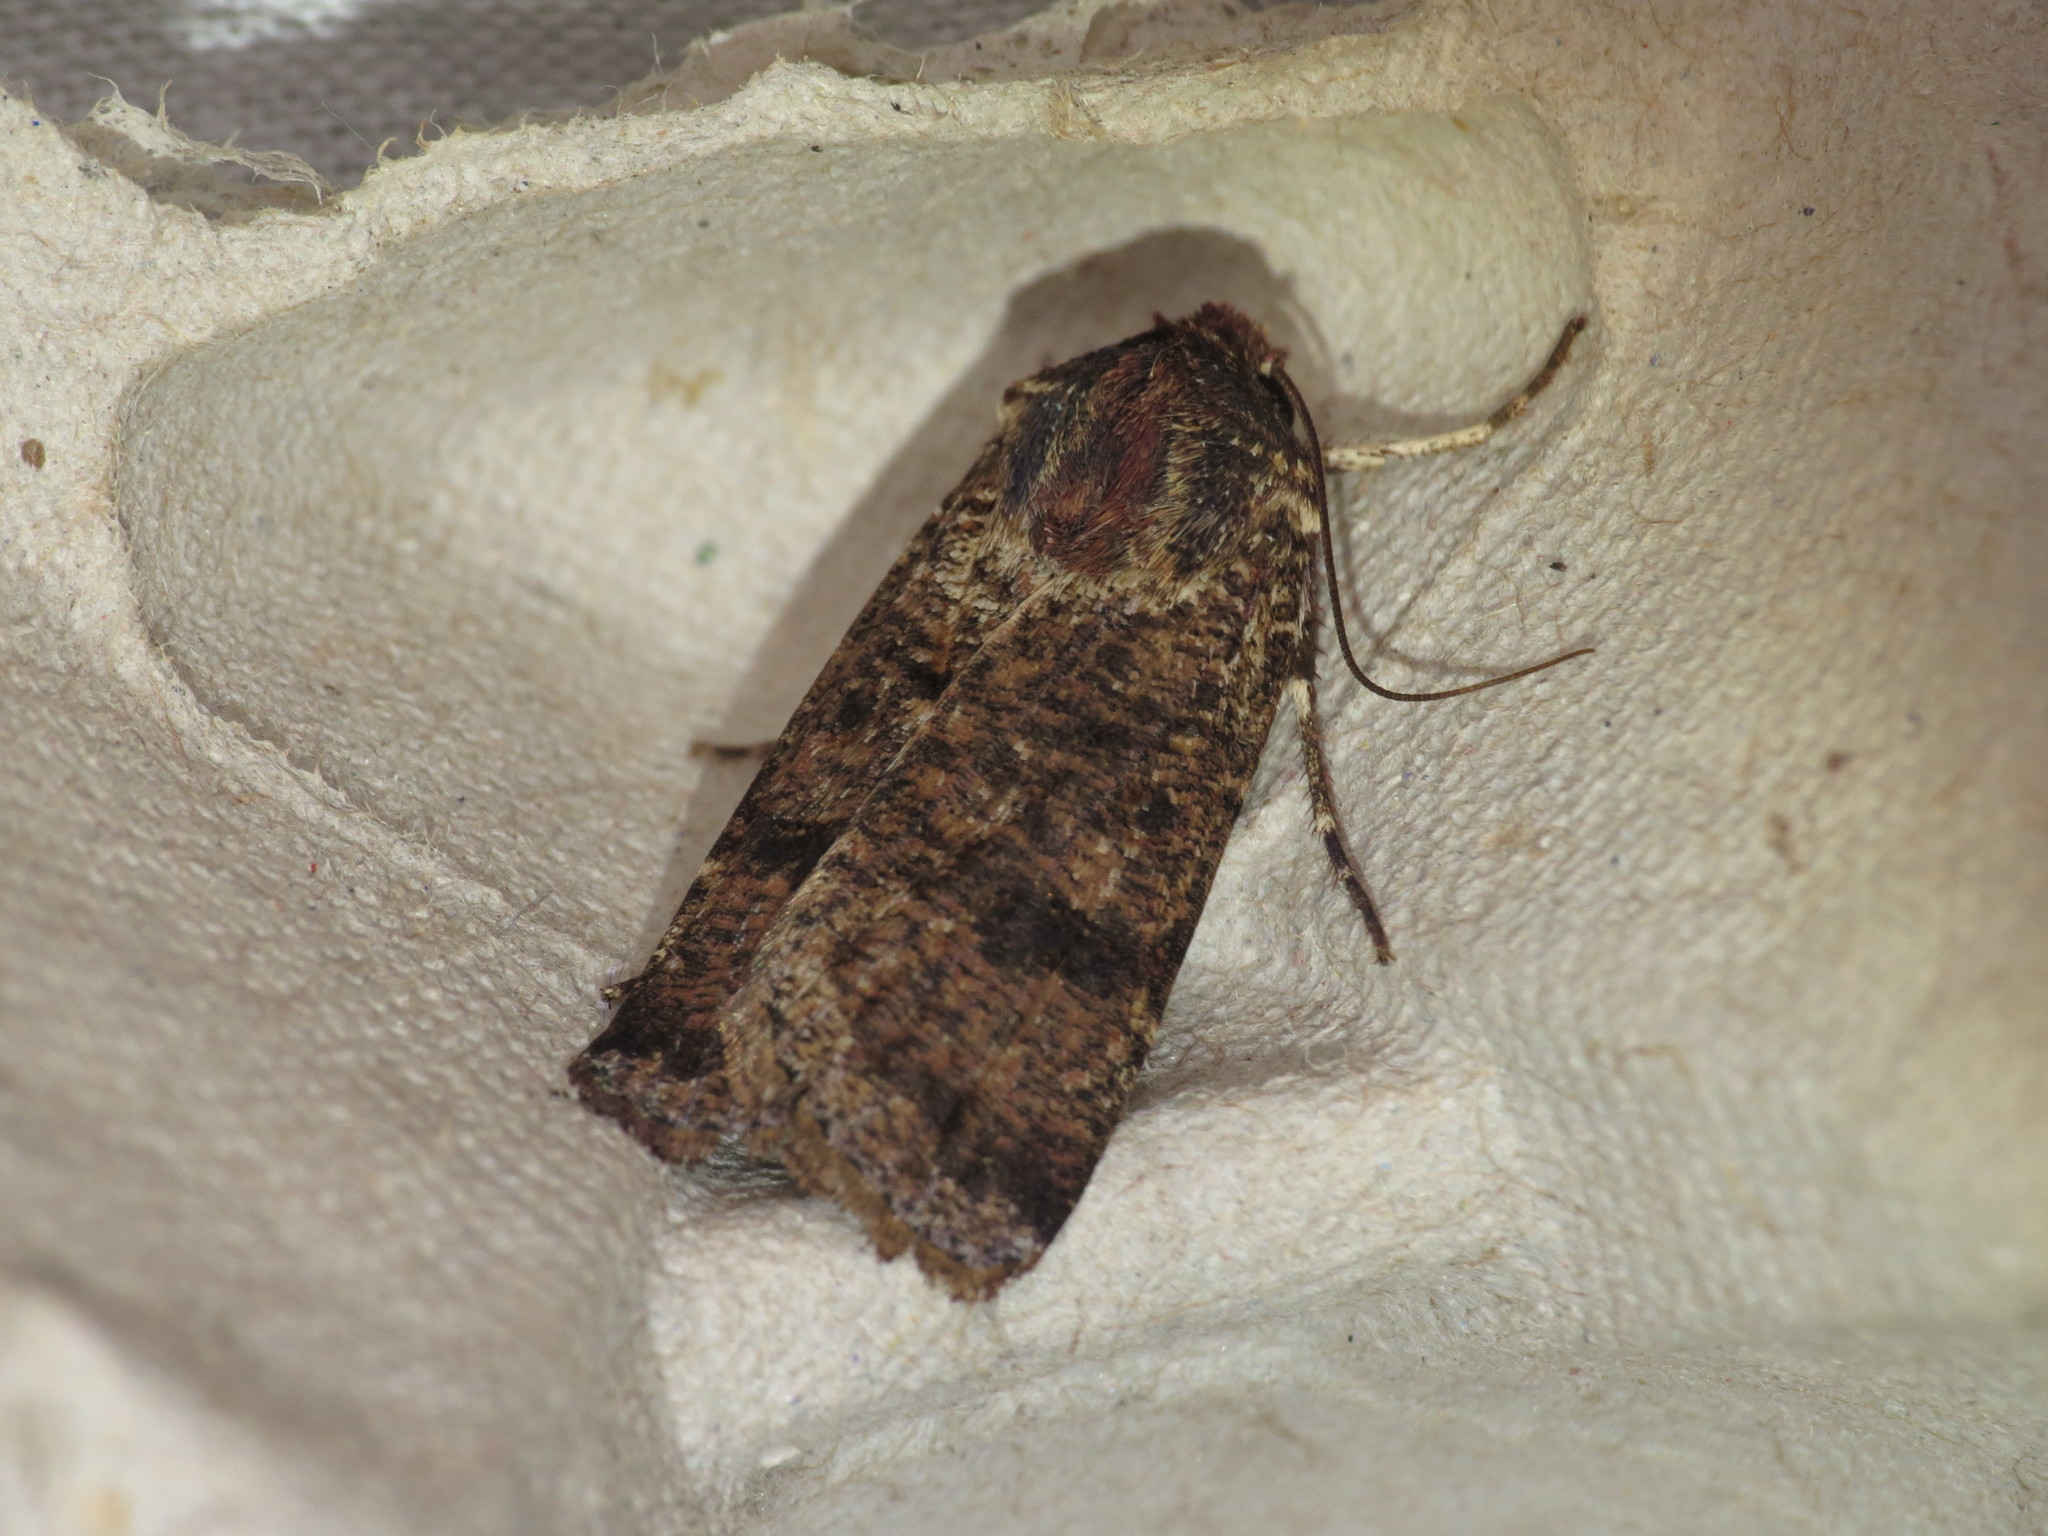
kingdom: Animalia
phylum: Arthropoda
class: Insecta
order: Lepidoptera
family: Noctuidae
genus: Agrotis
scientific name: Agrotis porphyricollis
